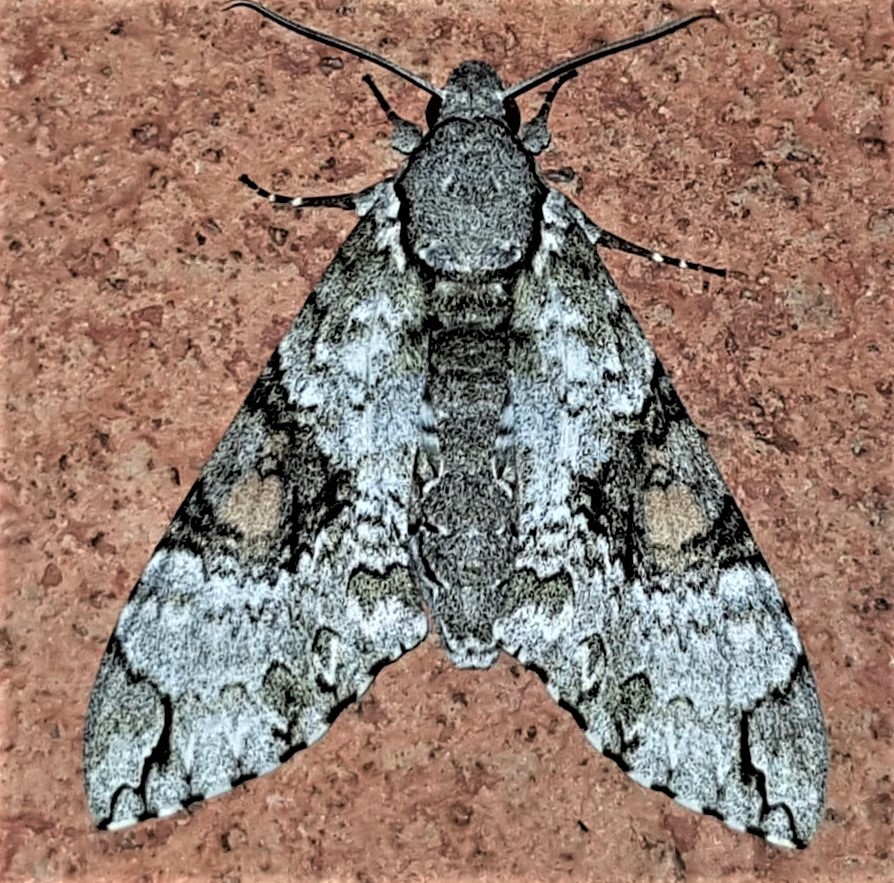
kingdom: Animalia
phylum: Arthropoda
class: Insecta
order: Lepidoptera
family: Sphingidae
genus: Manduca
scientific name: Manduca florestan
